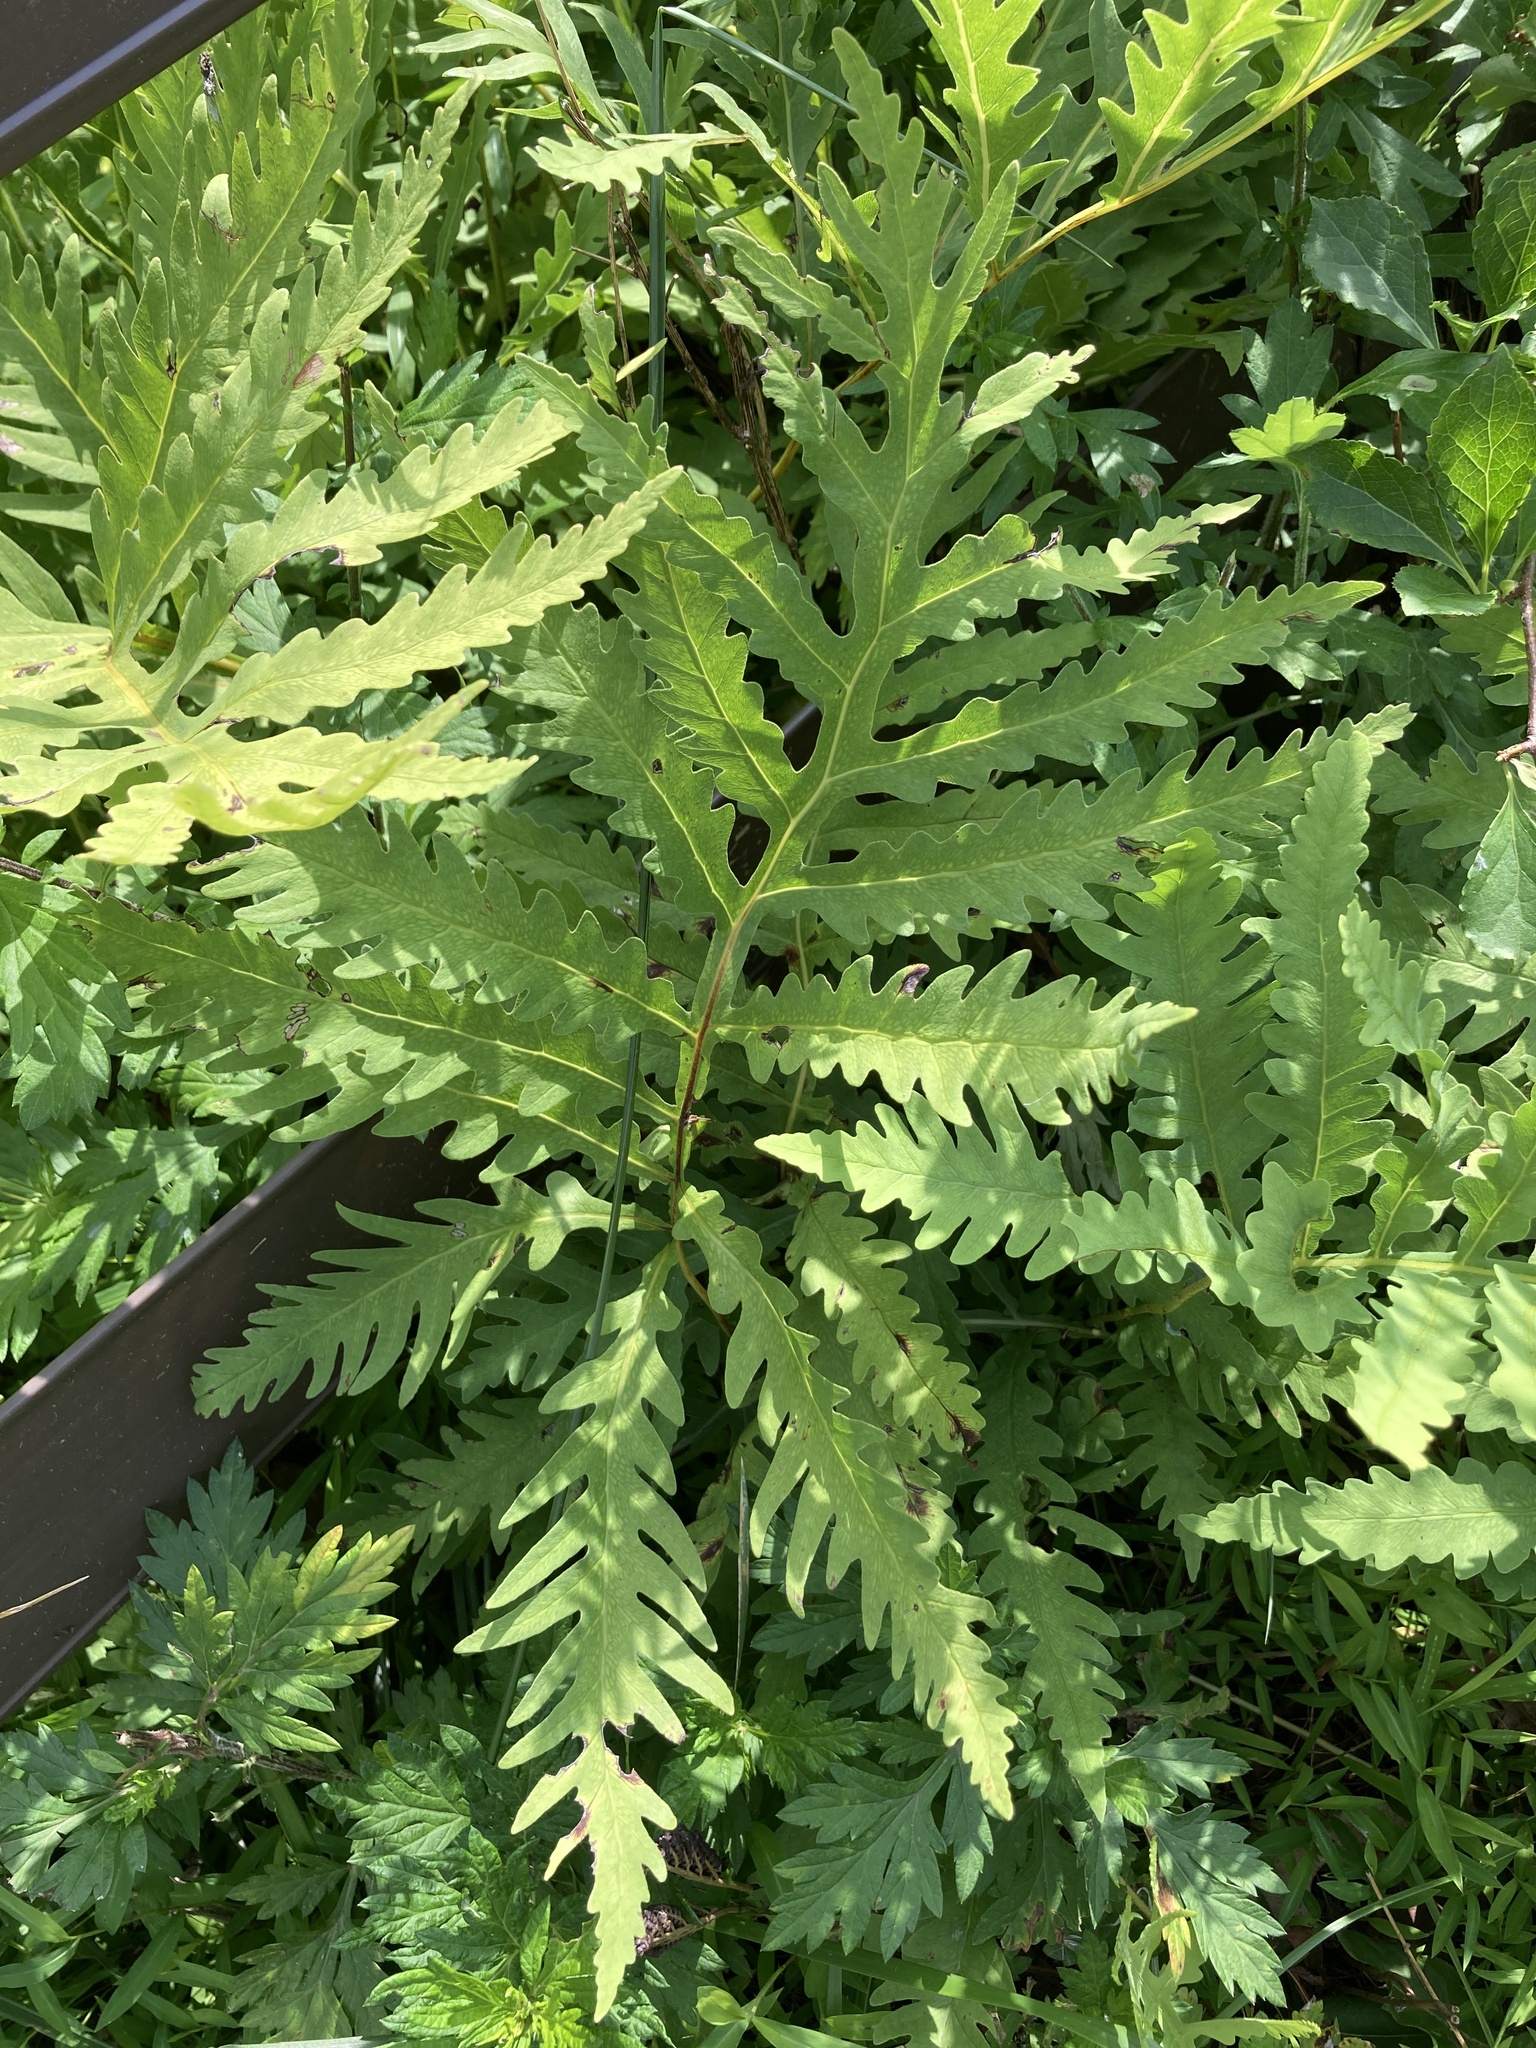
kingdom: Plantae
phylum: Tracheophyta
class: Polypodiopsida
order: Polypodiales
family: Onocleaceae
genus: Onoclea
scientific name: Onoclea sensibilis
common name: Sensitive fern
